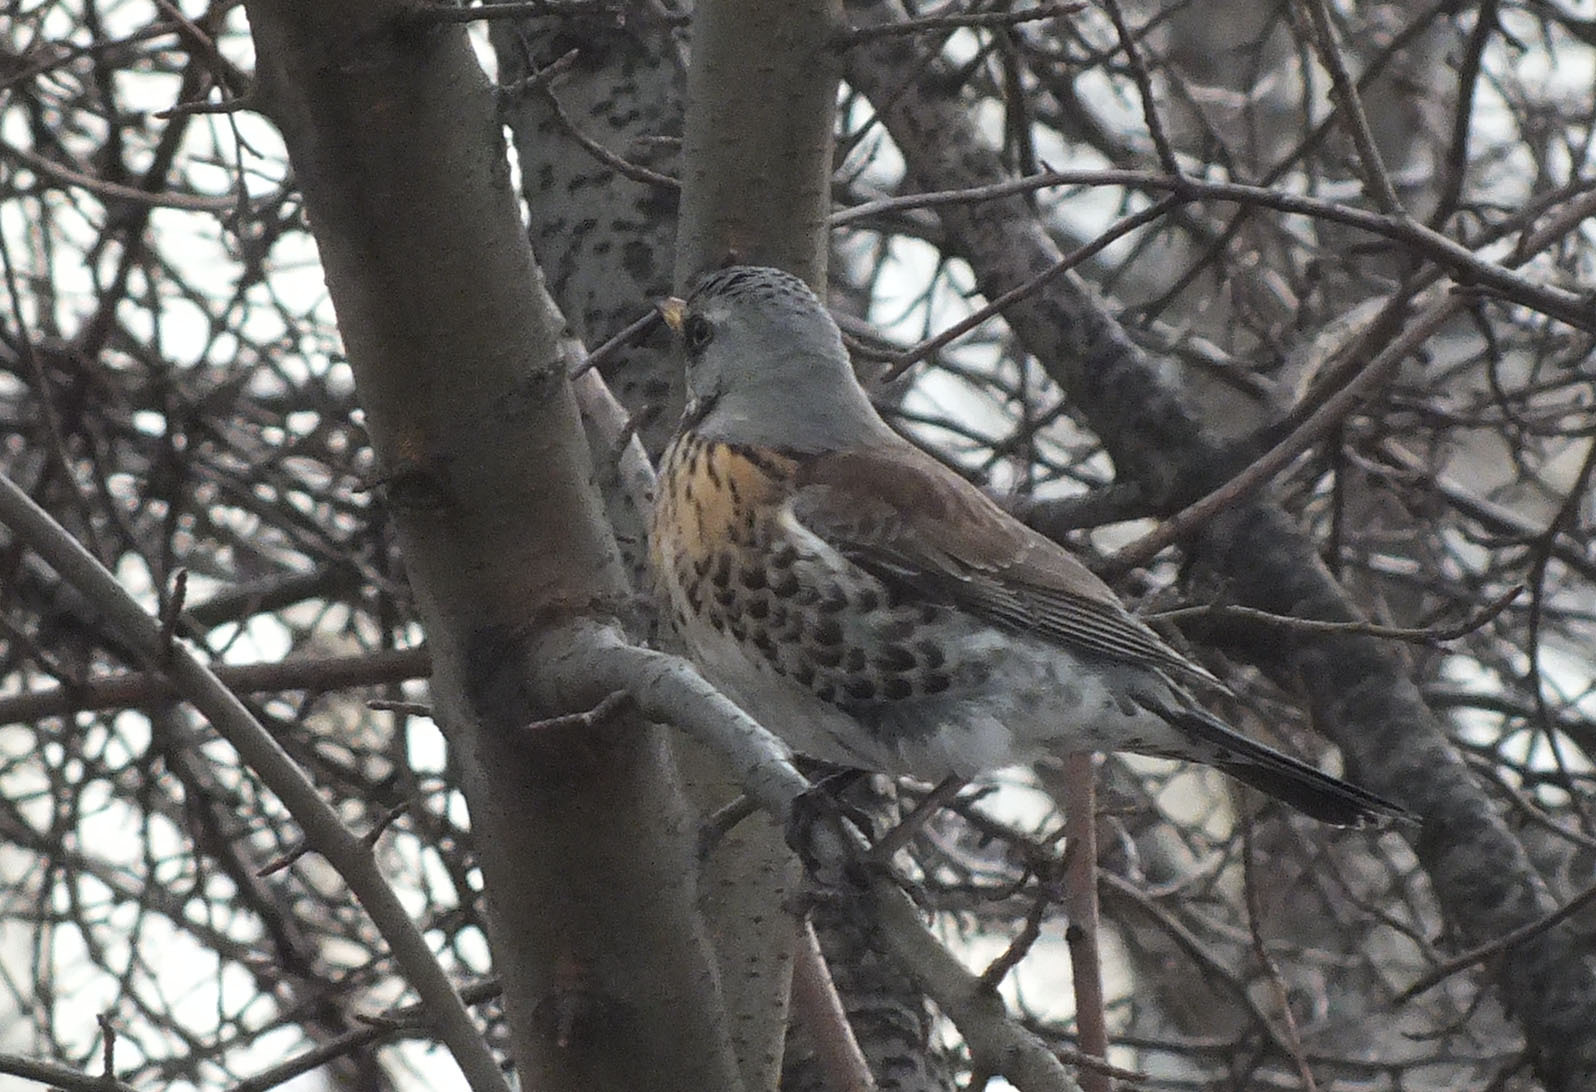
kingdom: Animalia
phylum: Chordata
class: Aves
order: Passeriformes
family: Turdidae
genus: Turdus
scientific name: Turdus pilaris
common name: Fieldfare
